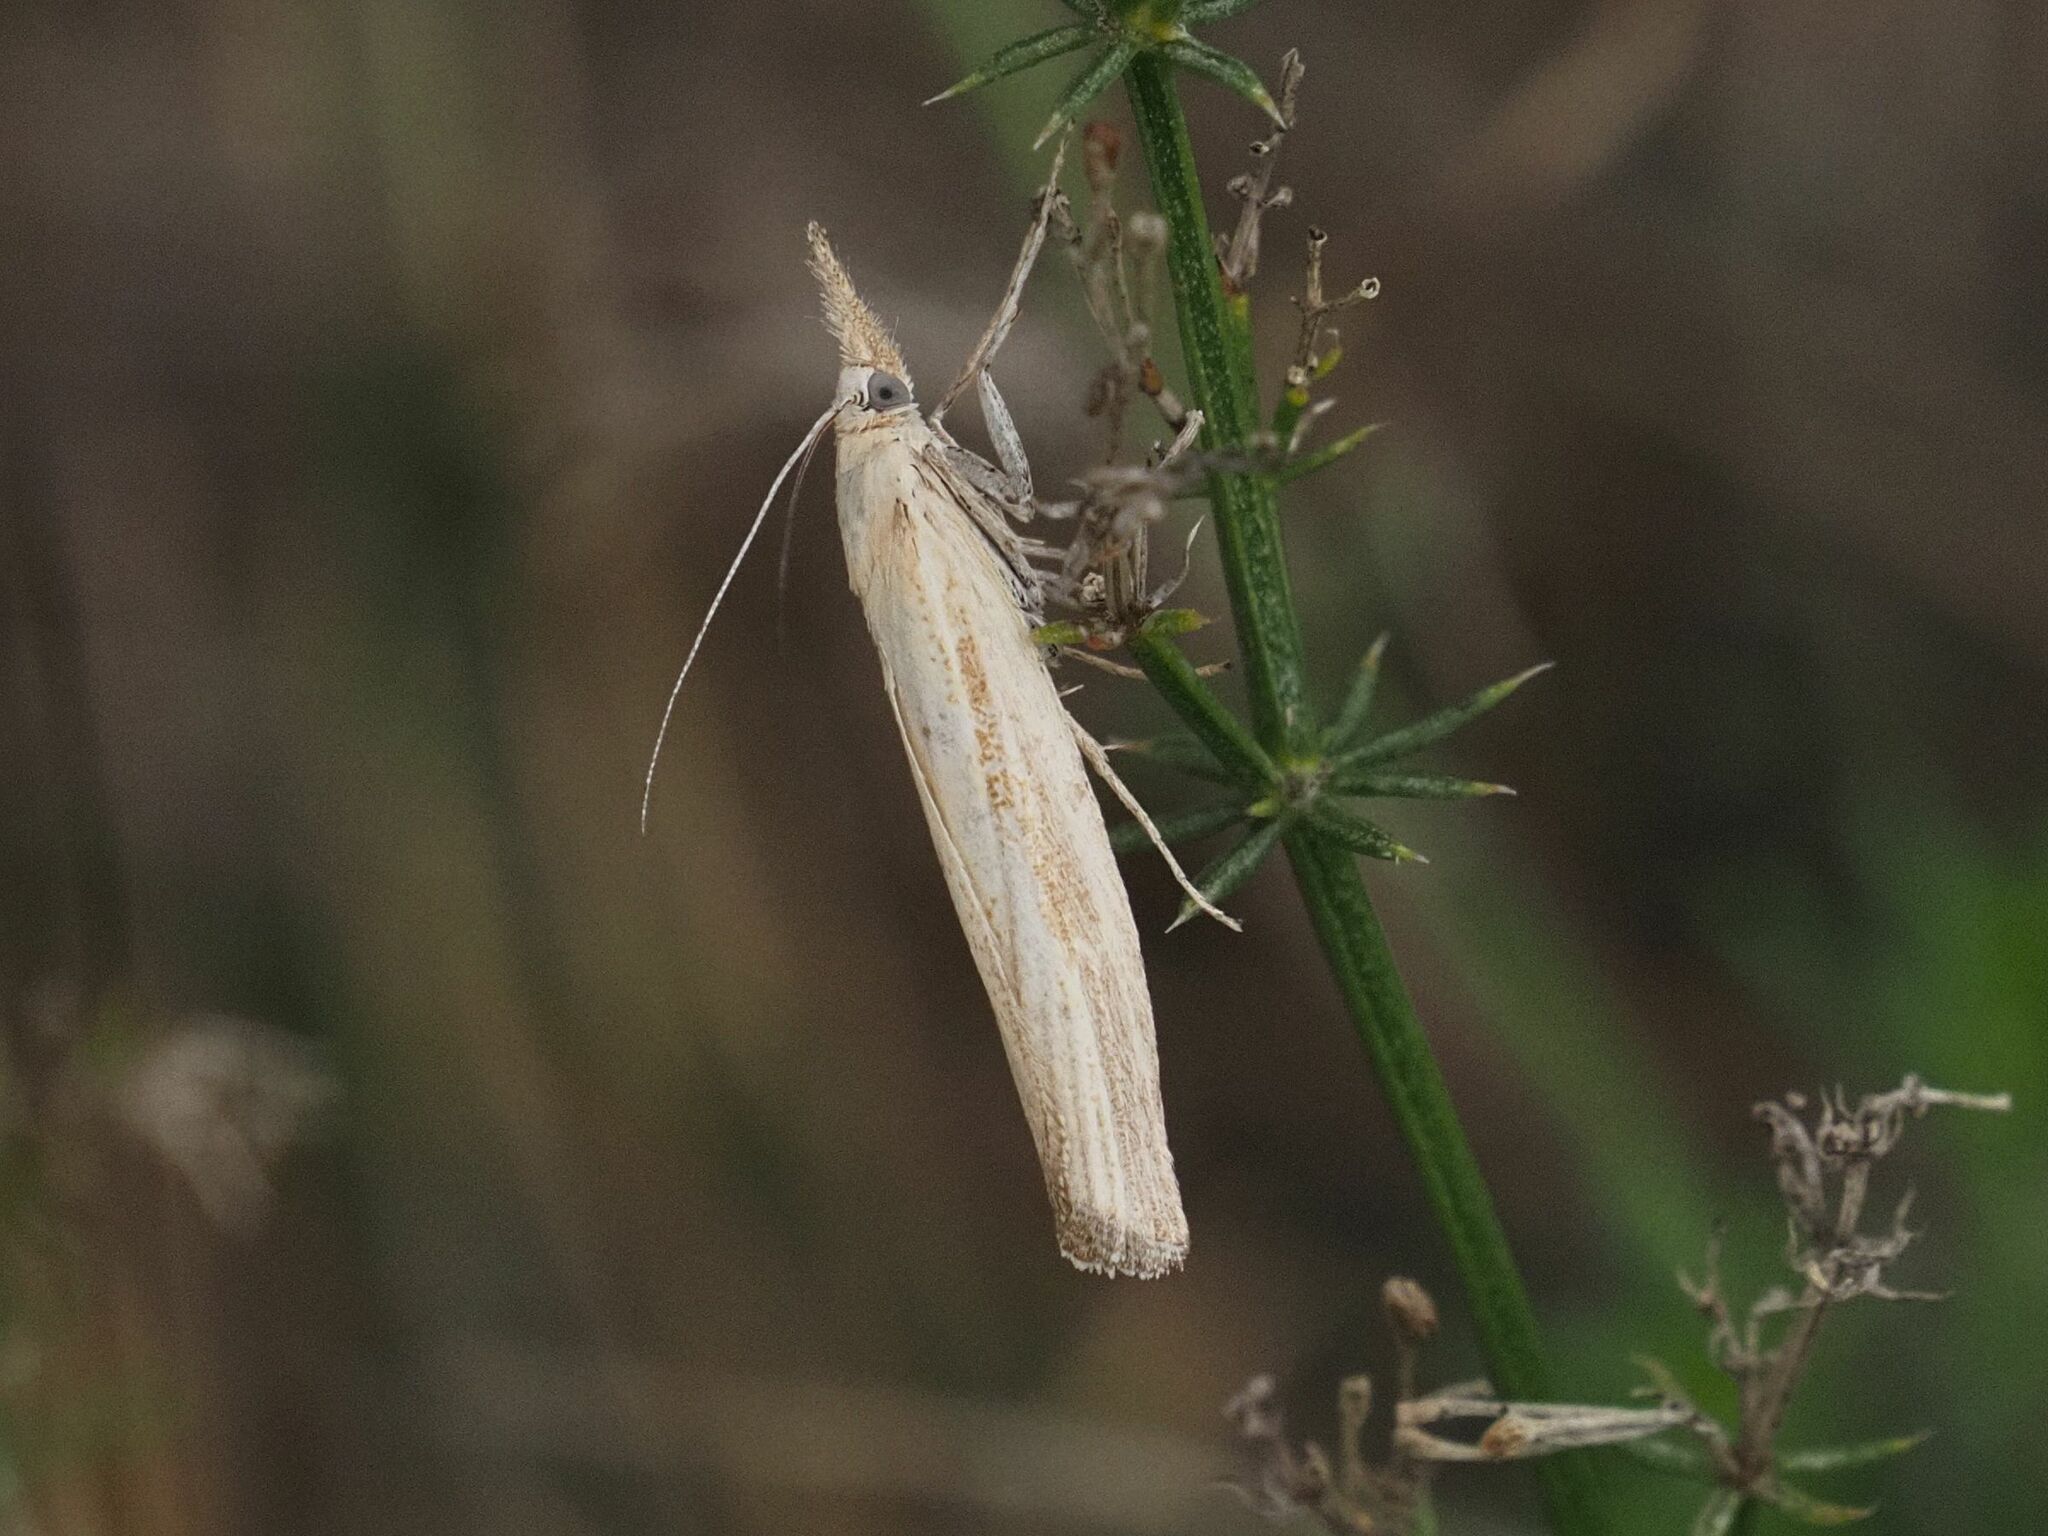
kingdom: Animalia
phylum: Arthropoda
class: Insecta
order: Lepidoptera
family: Crambidae
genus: Agriphila
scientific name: Agriphila tristellus
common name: Common grass-veneer
